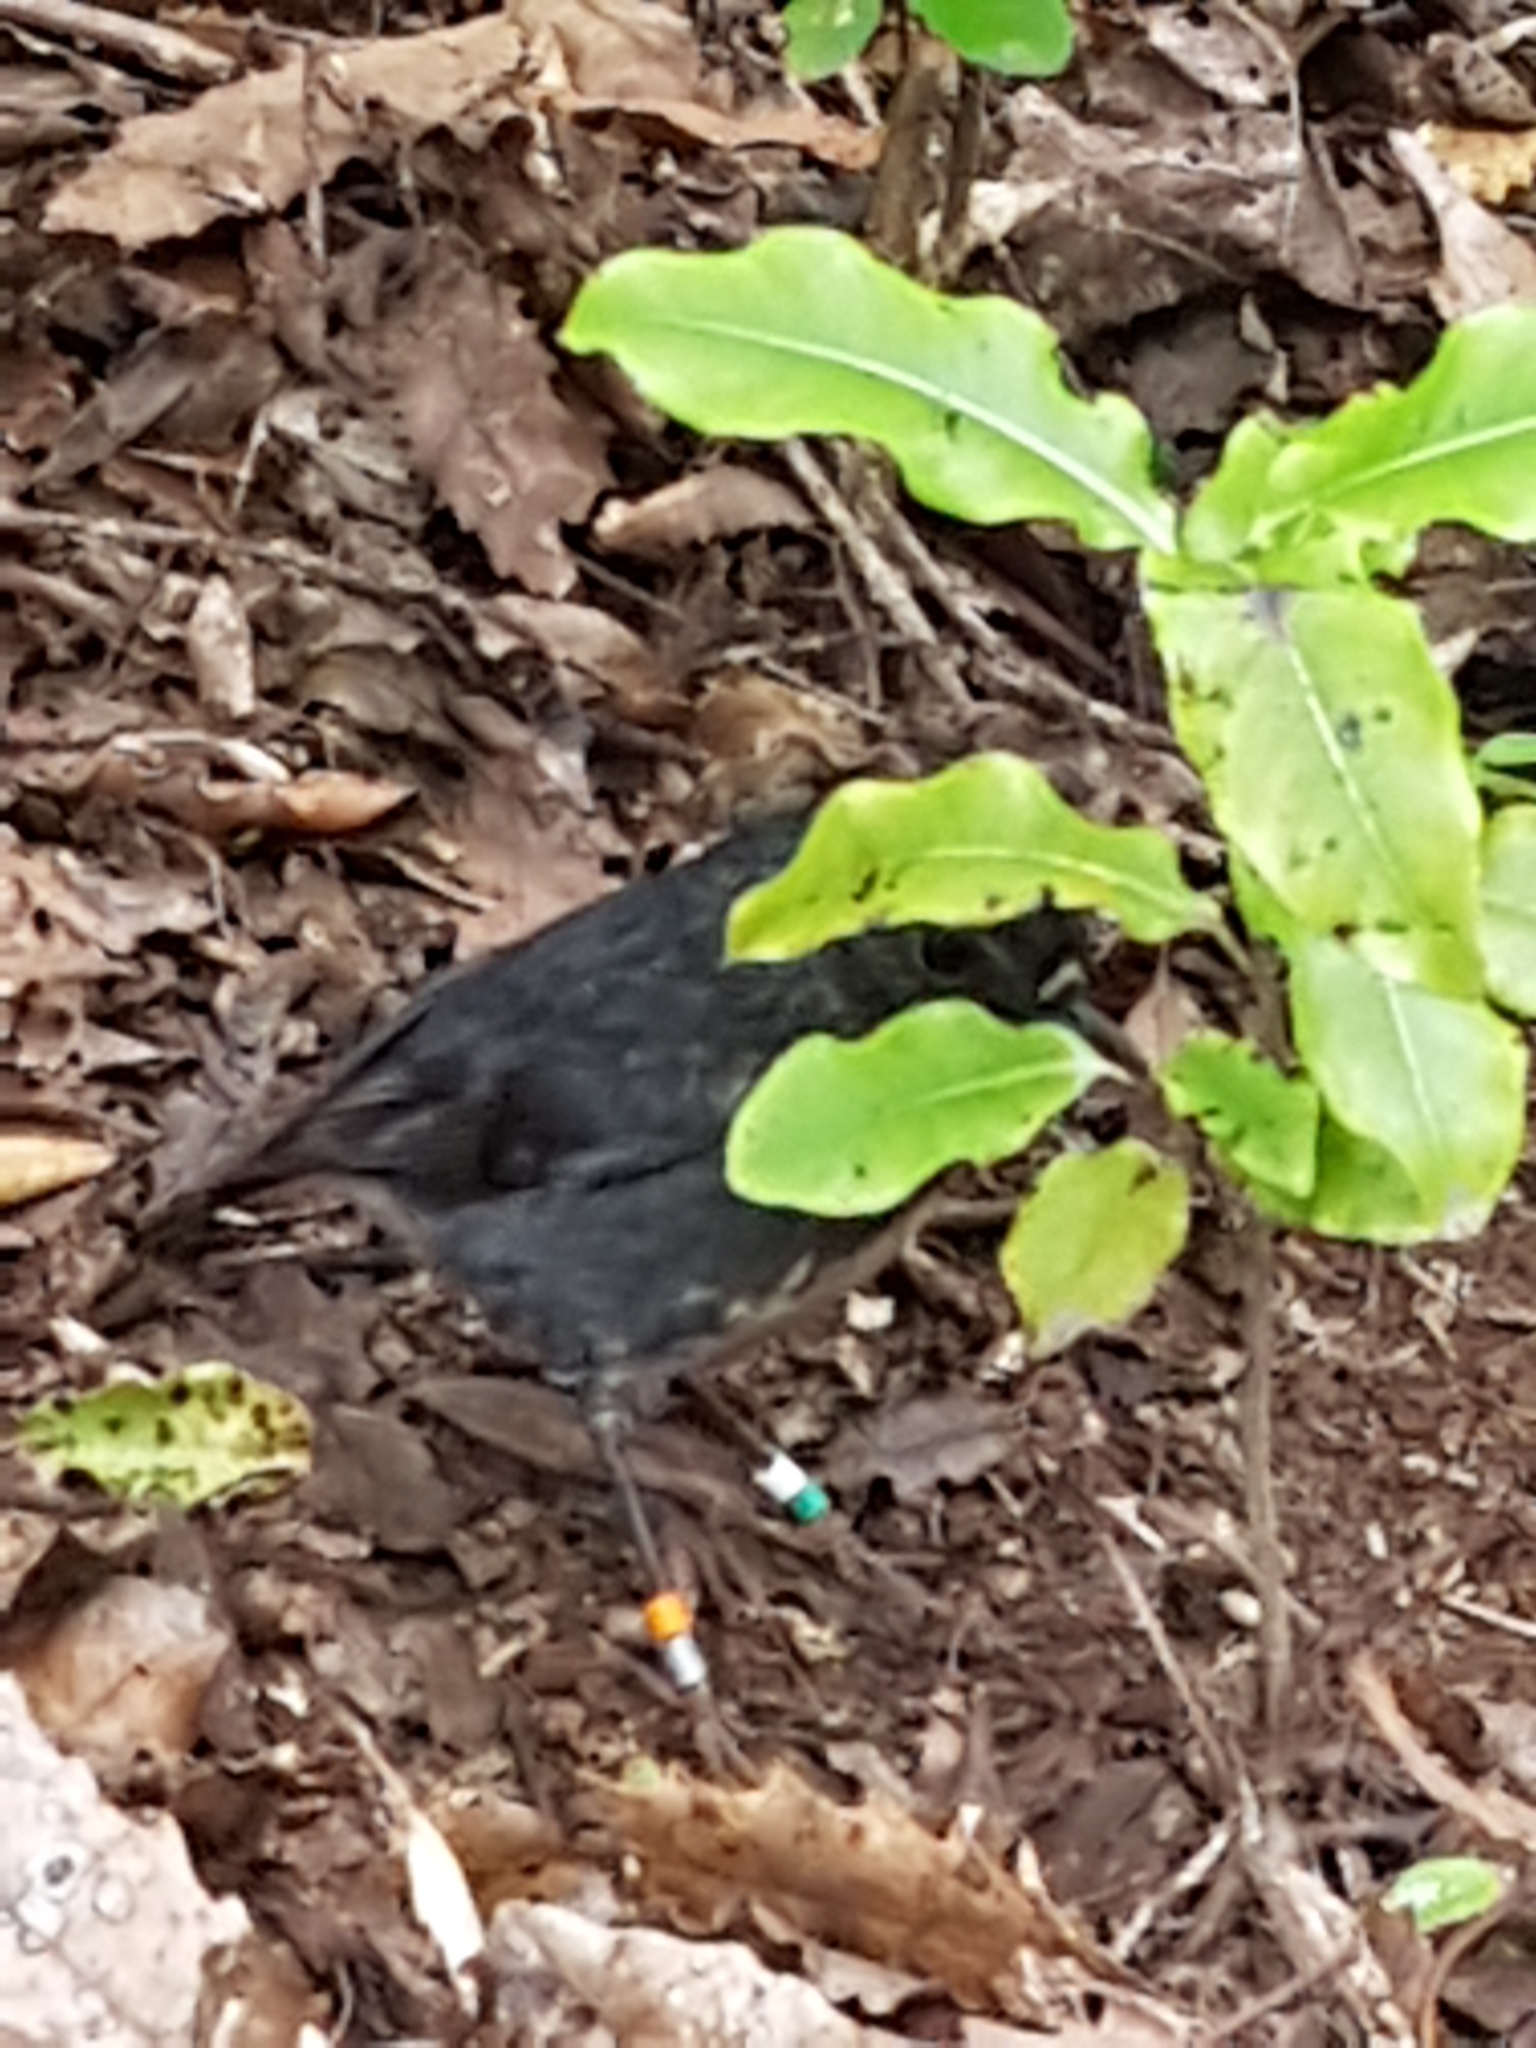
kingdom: Animalia
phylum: Chordata
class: Aves
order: Passeriformes
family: Petroicidae
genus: Petroica
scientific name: Petroica australis
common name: New zealand robin
